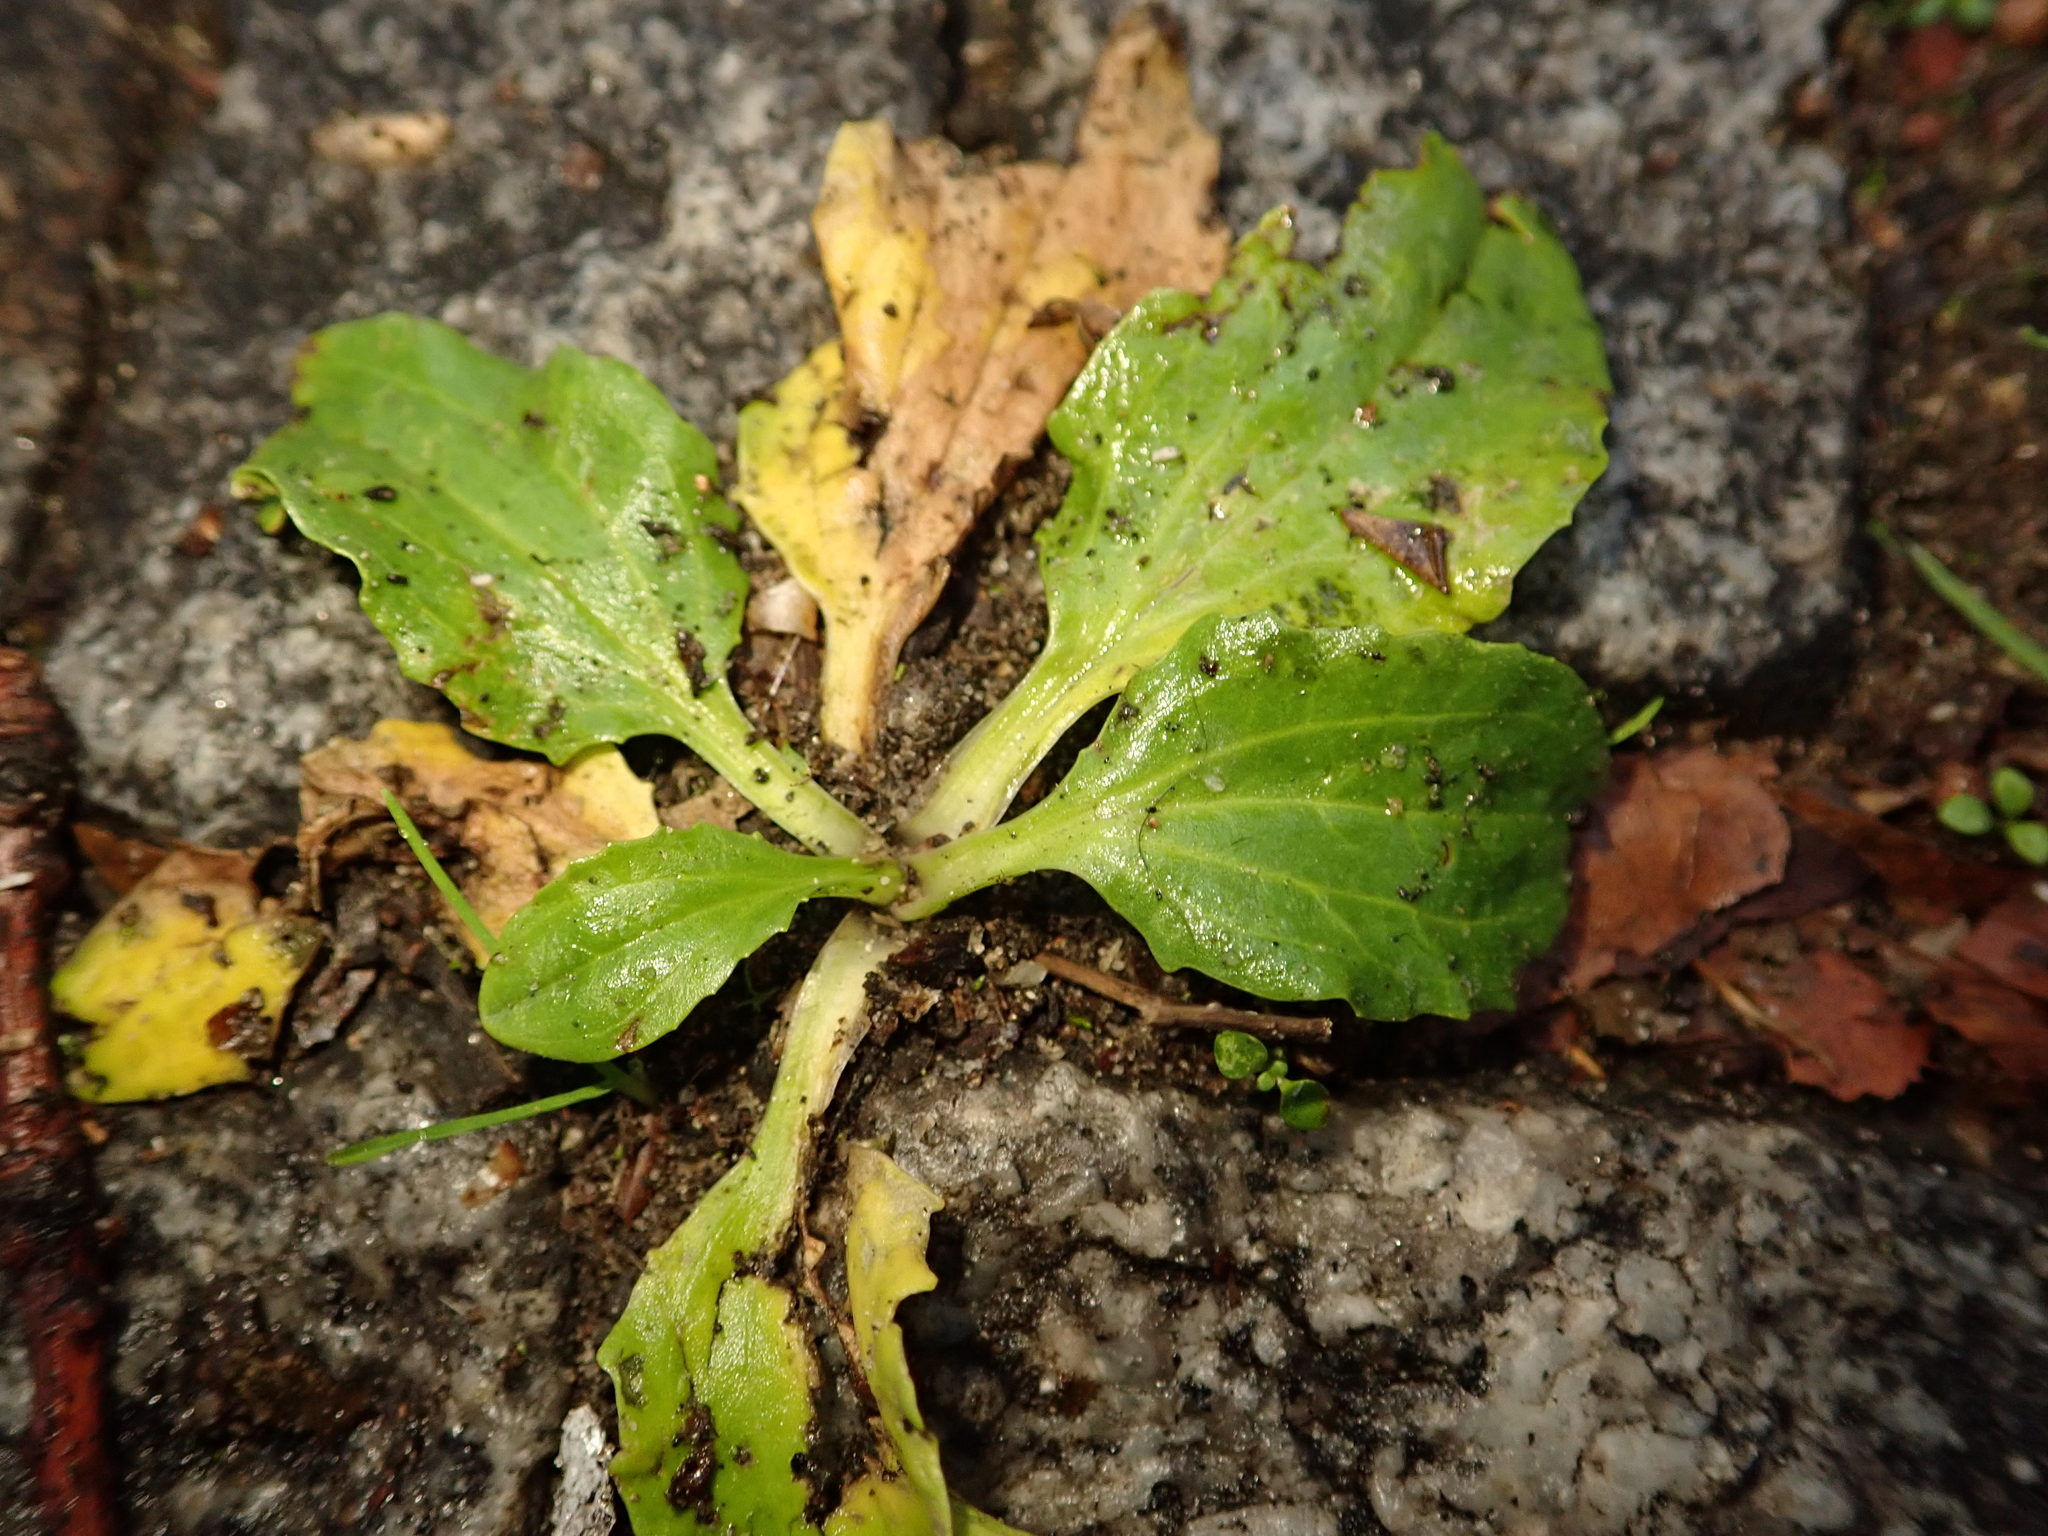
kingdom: Plantae
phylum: Tracheophyta
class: Magnoliopsida
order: Lamiales
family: Plantaginaceae
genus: Plantago
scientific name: Plantago major
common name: Common plantain
